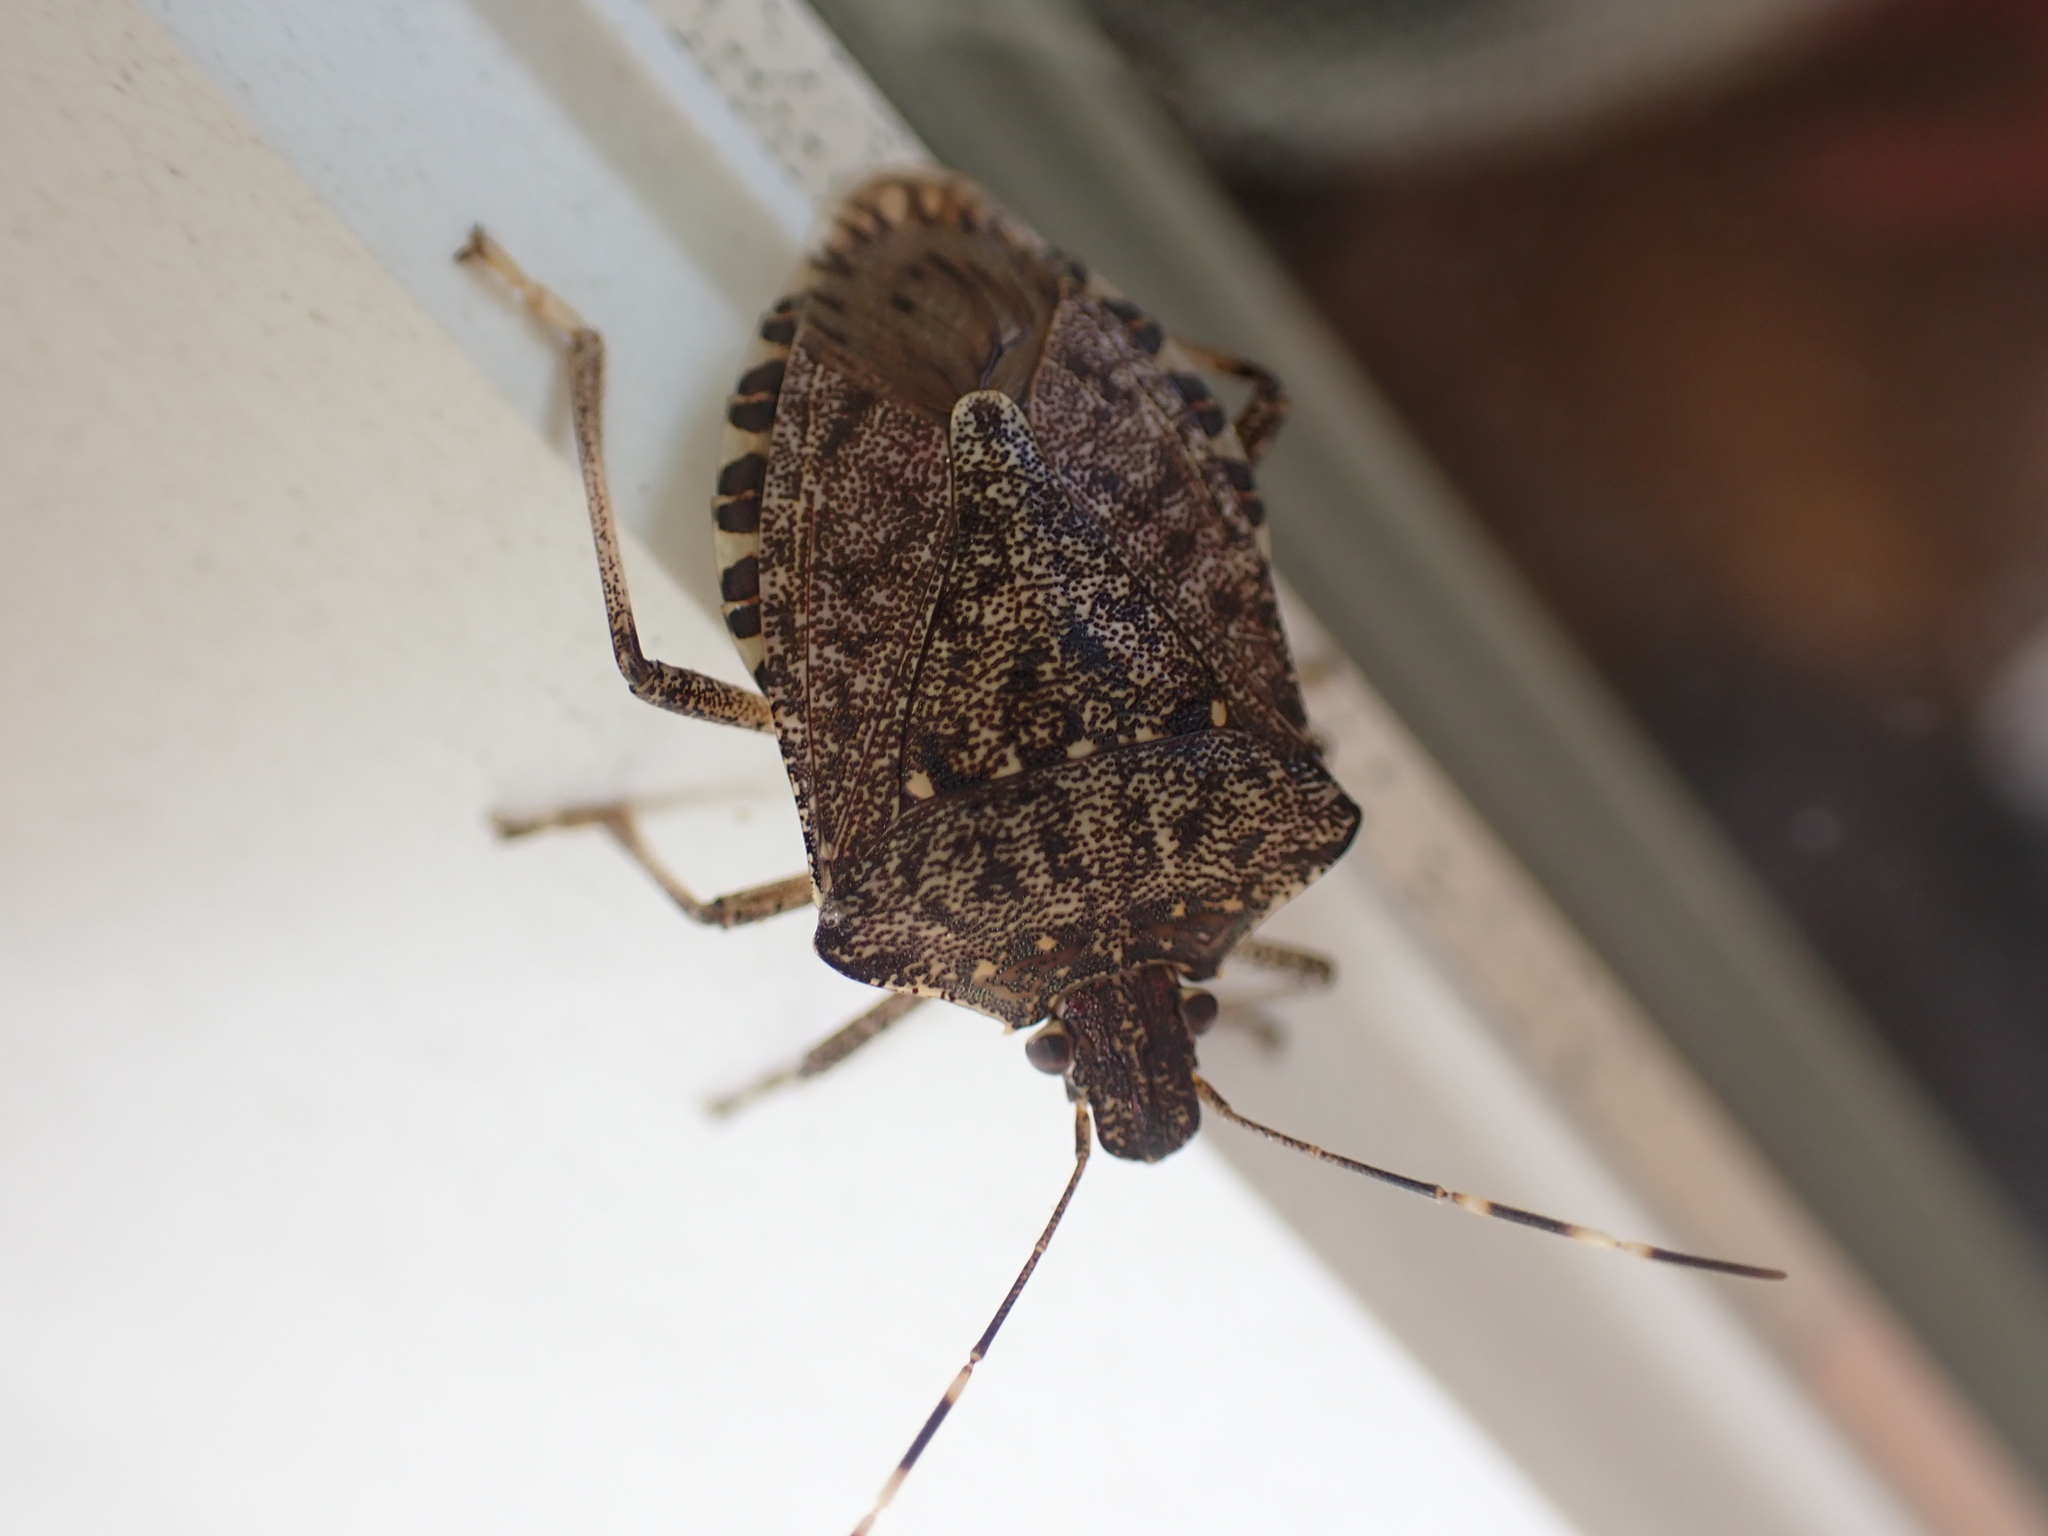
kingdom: Animalia
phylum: Arthropoda
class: Insecta
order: Hemiptera
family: Pentatomidae
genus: Halyomorpha
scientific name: Halyomorpha halys
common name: Brown marmorated stink bug
